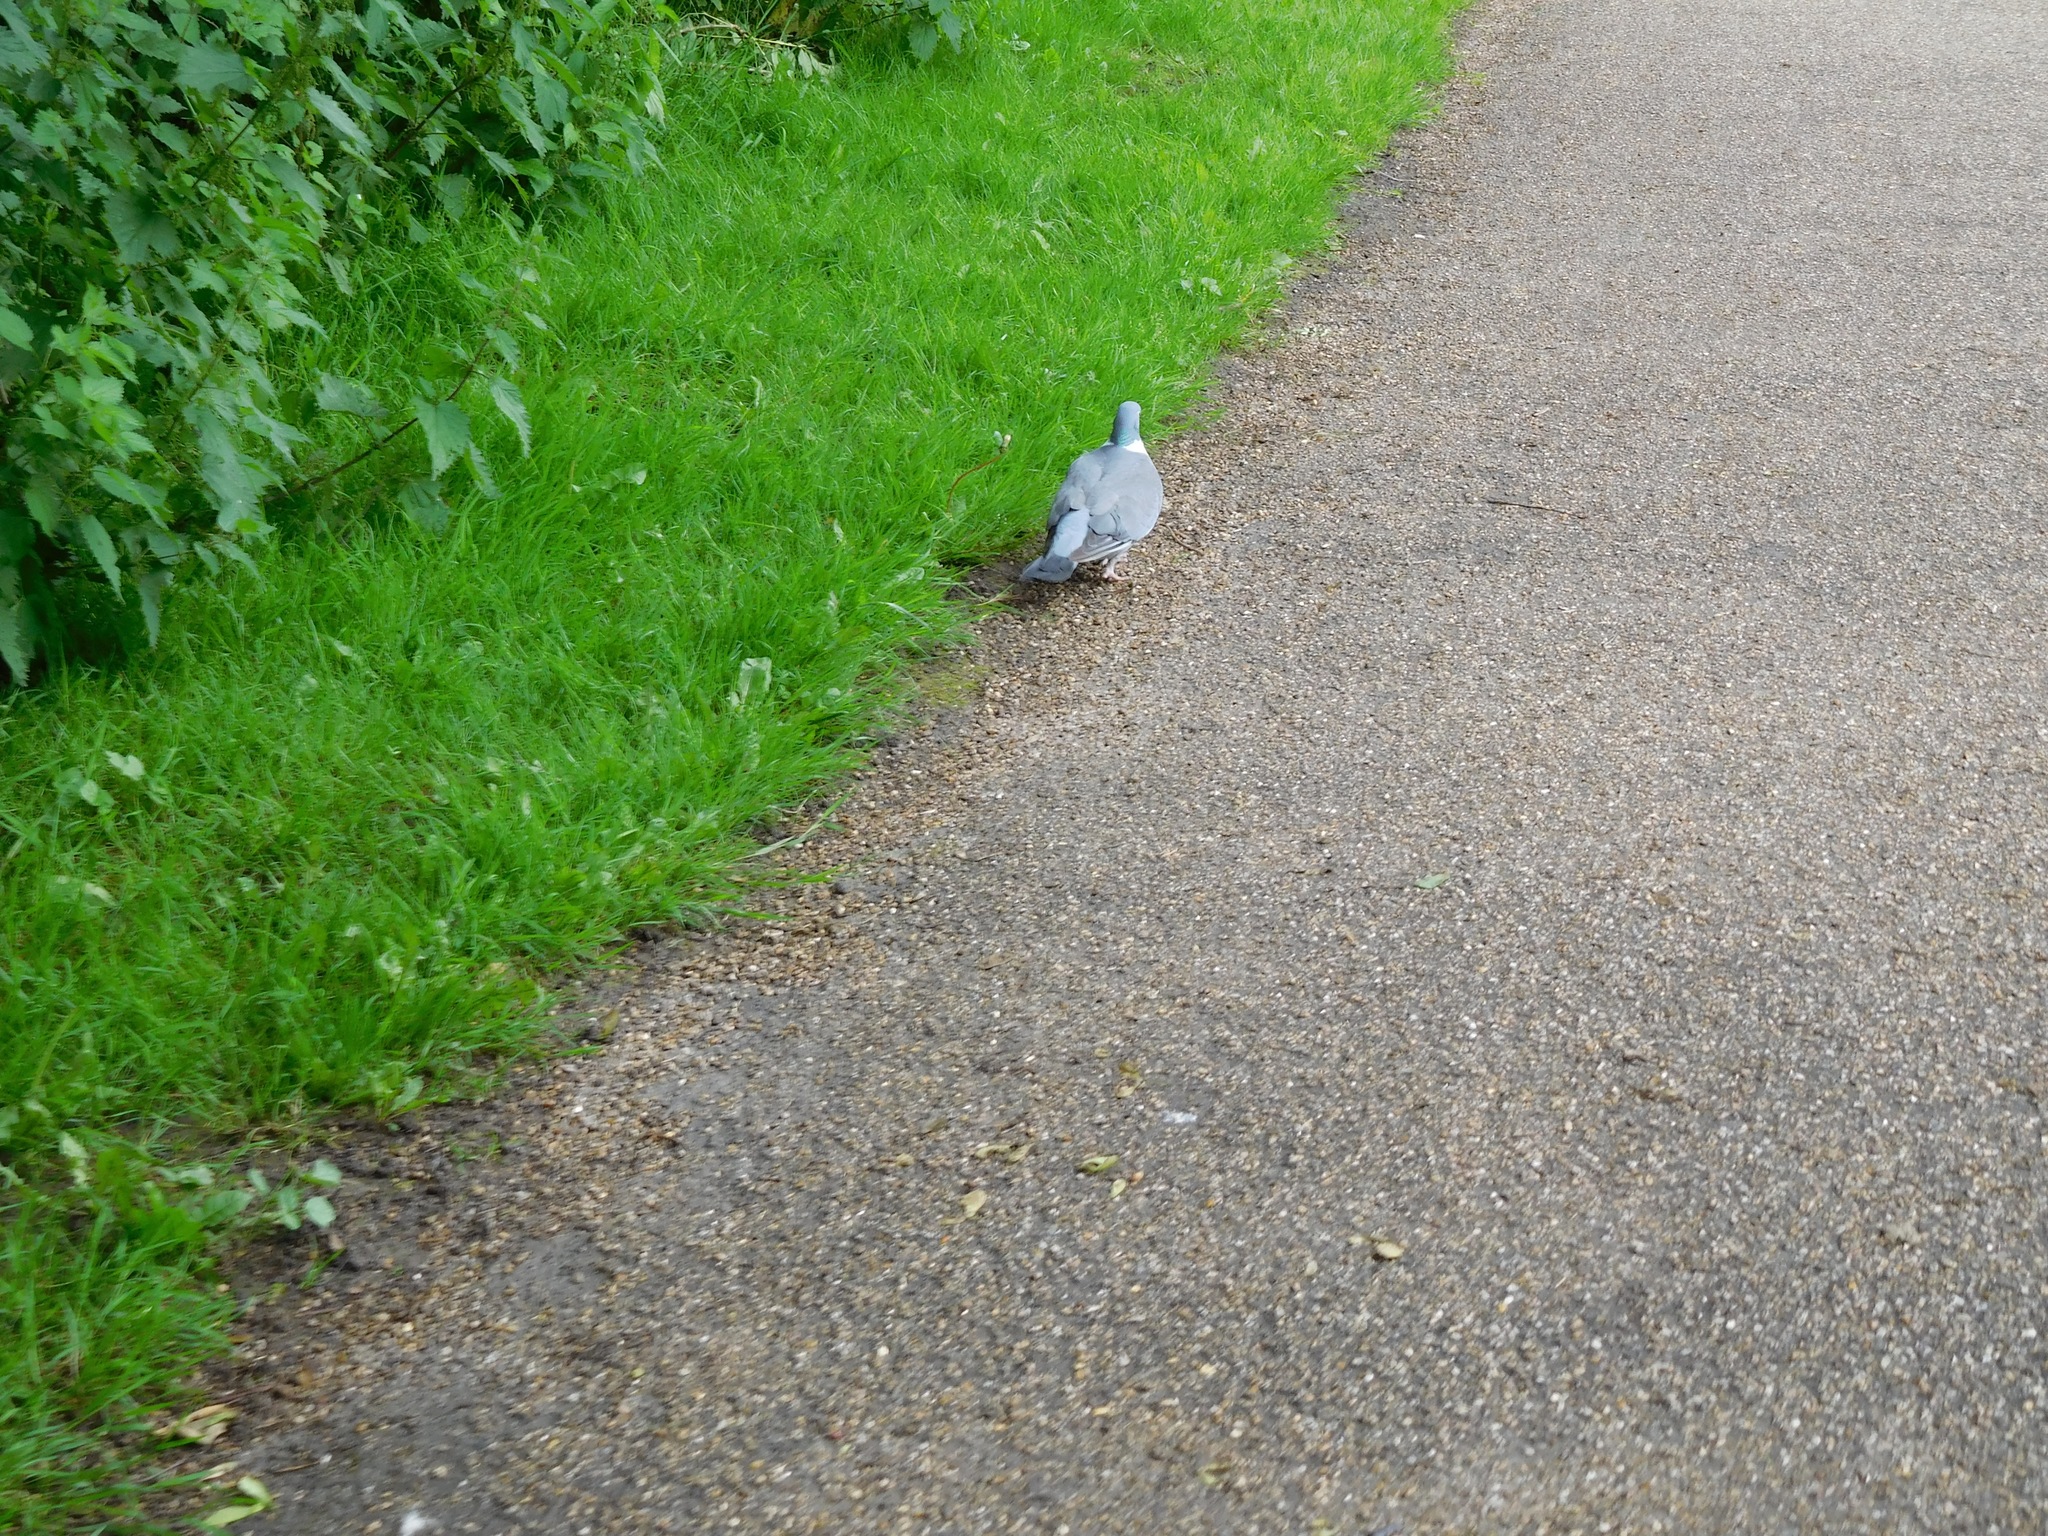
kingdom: Animalia
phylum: Chordata
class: Aves
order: Columbiformes
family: Columbidae
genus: Columba
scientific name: Columba palumbus
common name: Common wood pigeon
